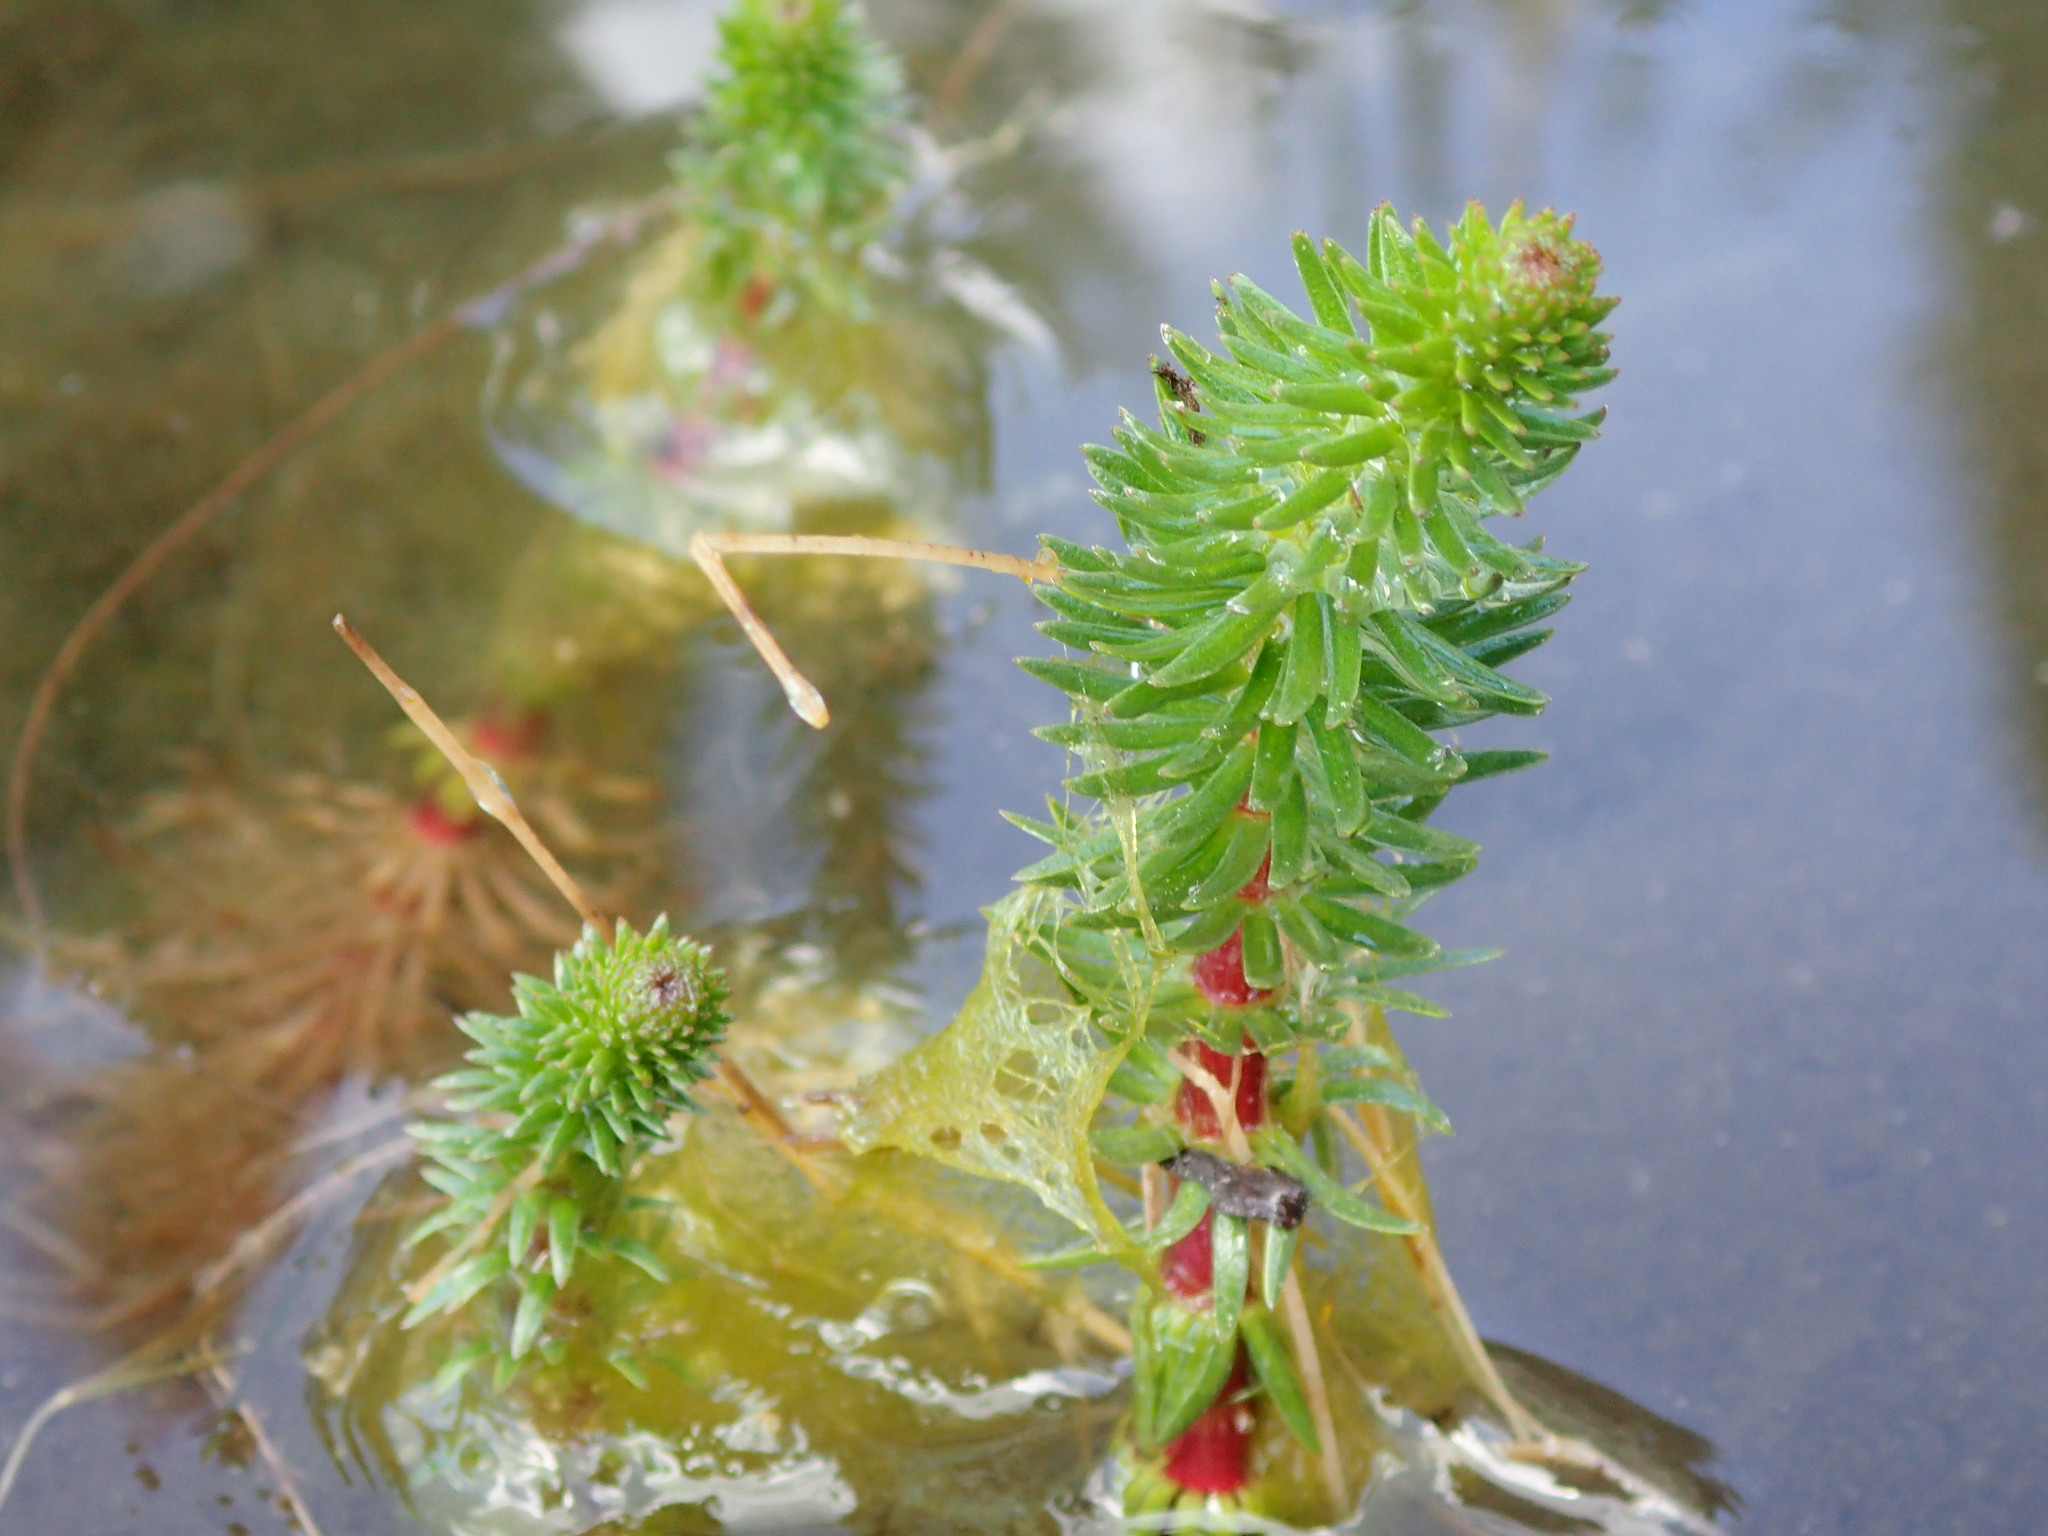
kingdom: Plantae
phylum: Tracheophyta
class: Magnoliopsida
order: Lamiales
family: Plantaginaceae
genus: Hippuris
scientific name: Hippuris vulgaris
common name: Mare's-tail
